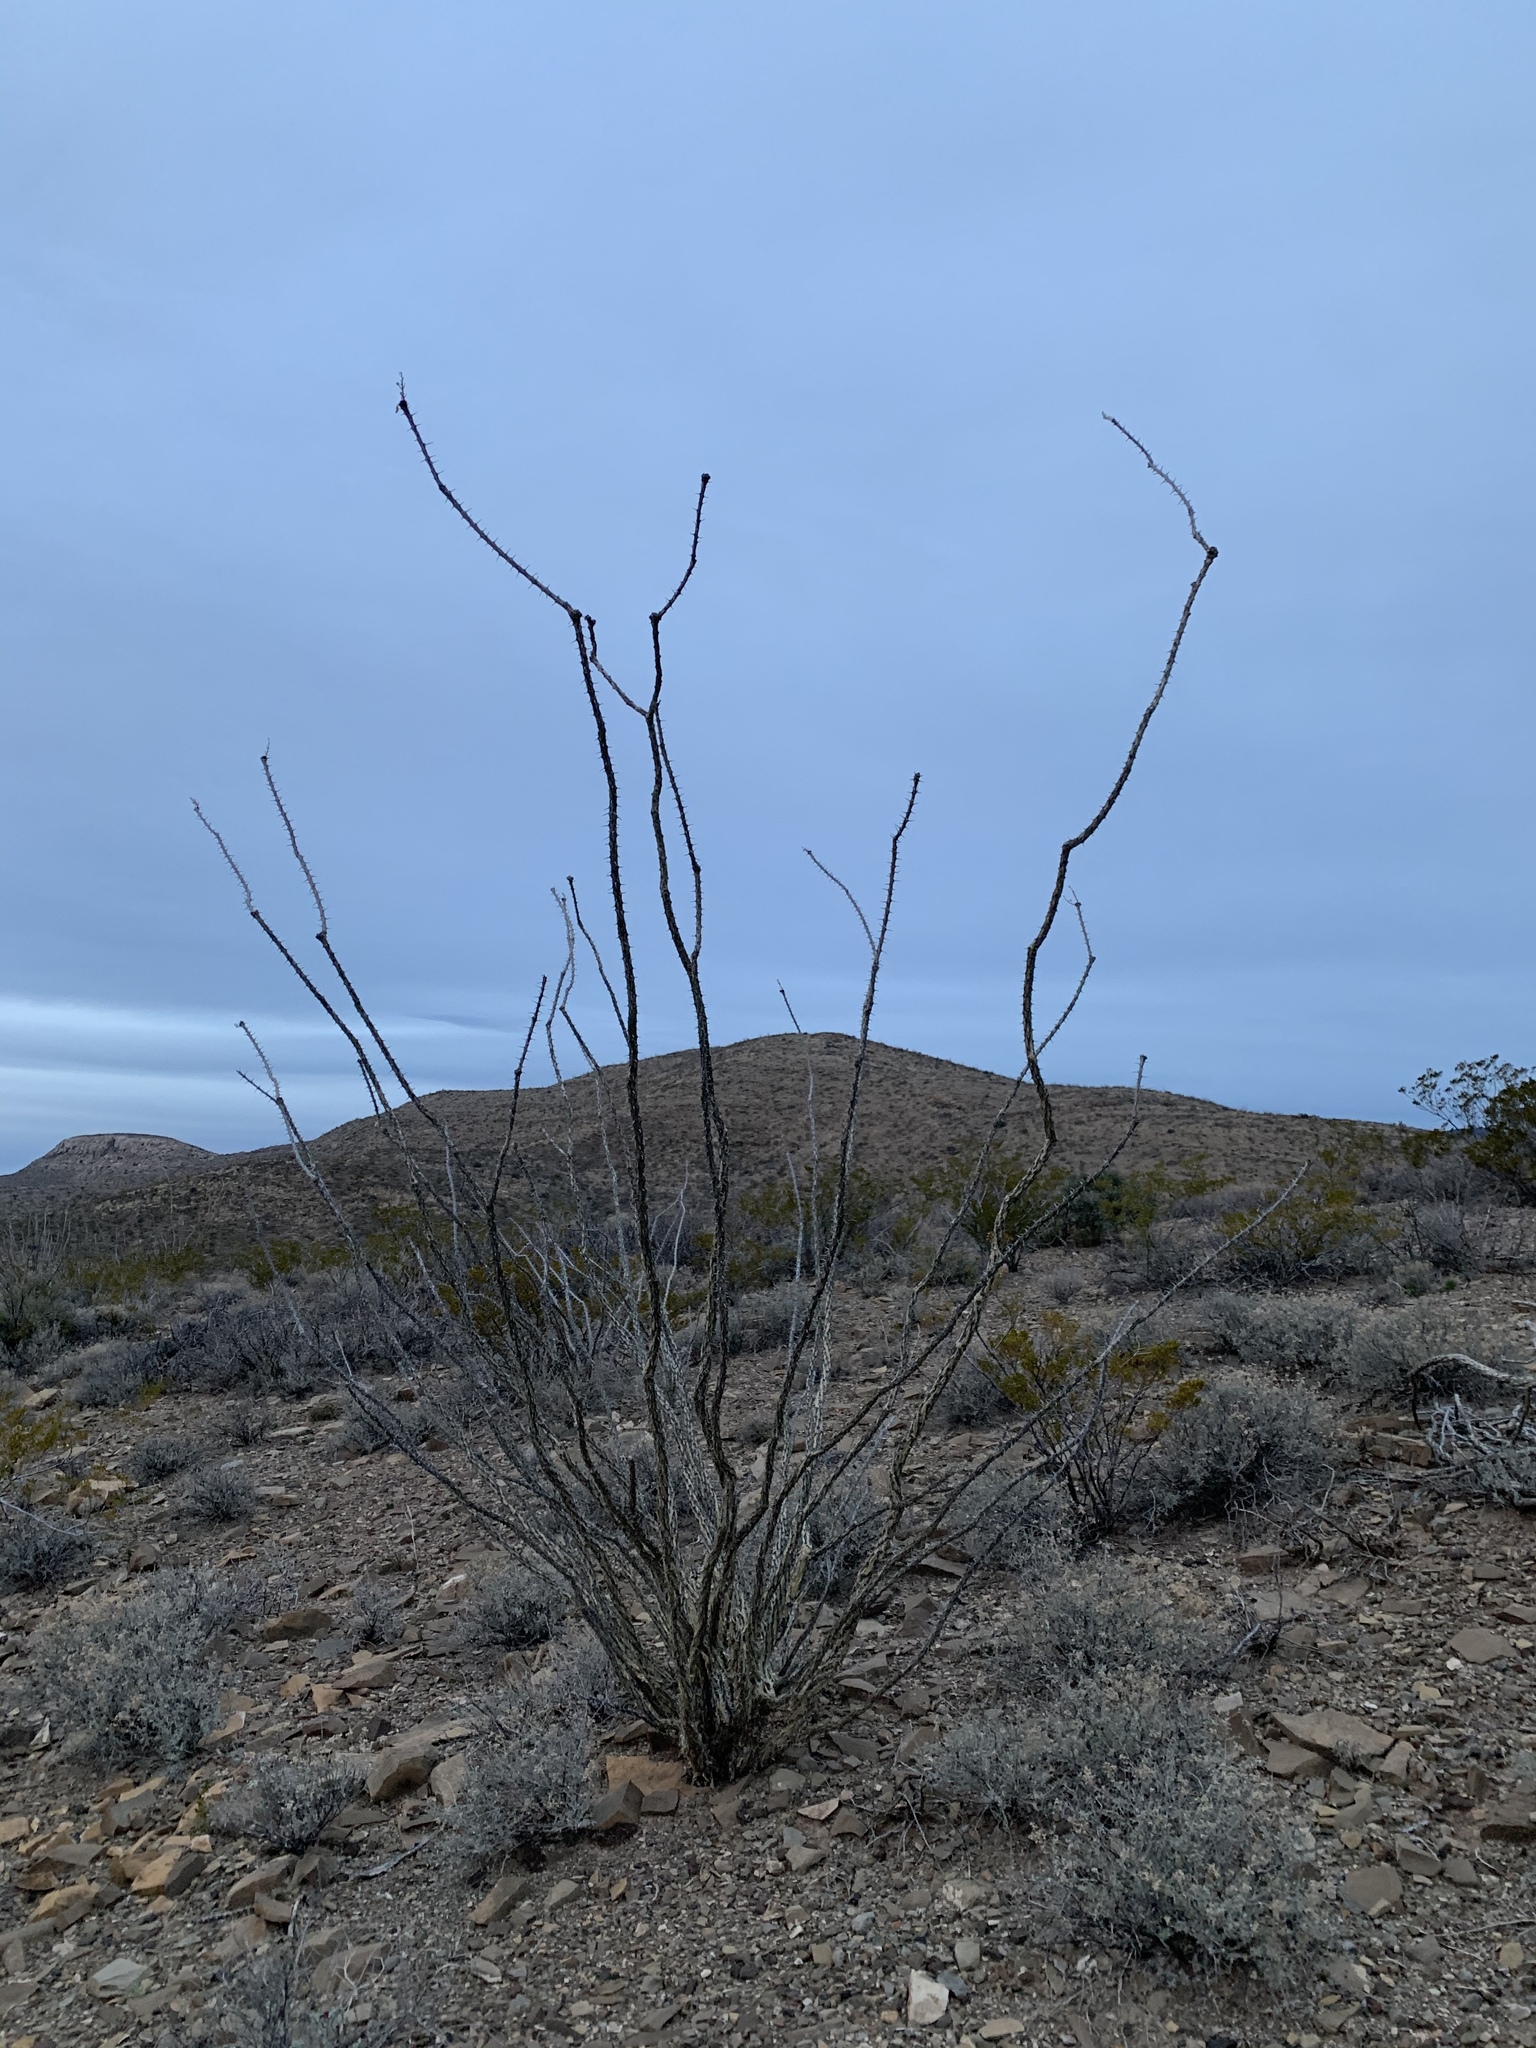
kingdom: Plantae
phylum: Tracheophyta
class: Magnoliopsida
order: Ericales
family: Fouquieriaceae
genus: Fouquieria
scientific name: Fouquieria splendens
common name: Vine-cactus
